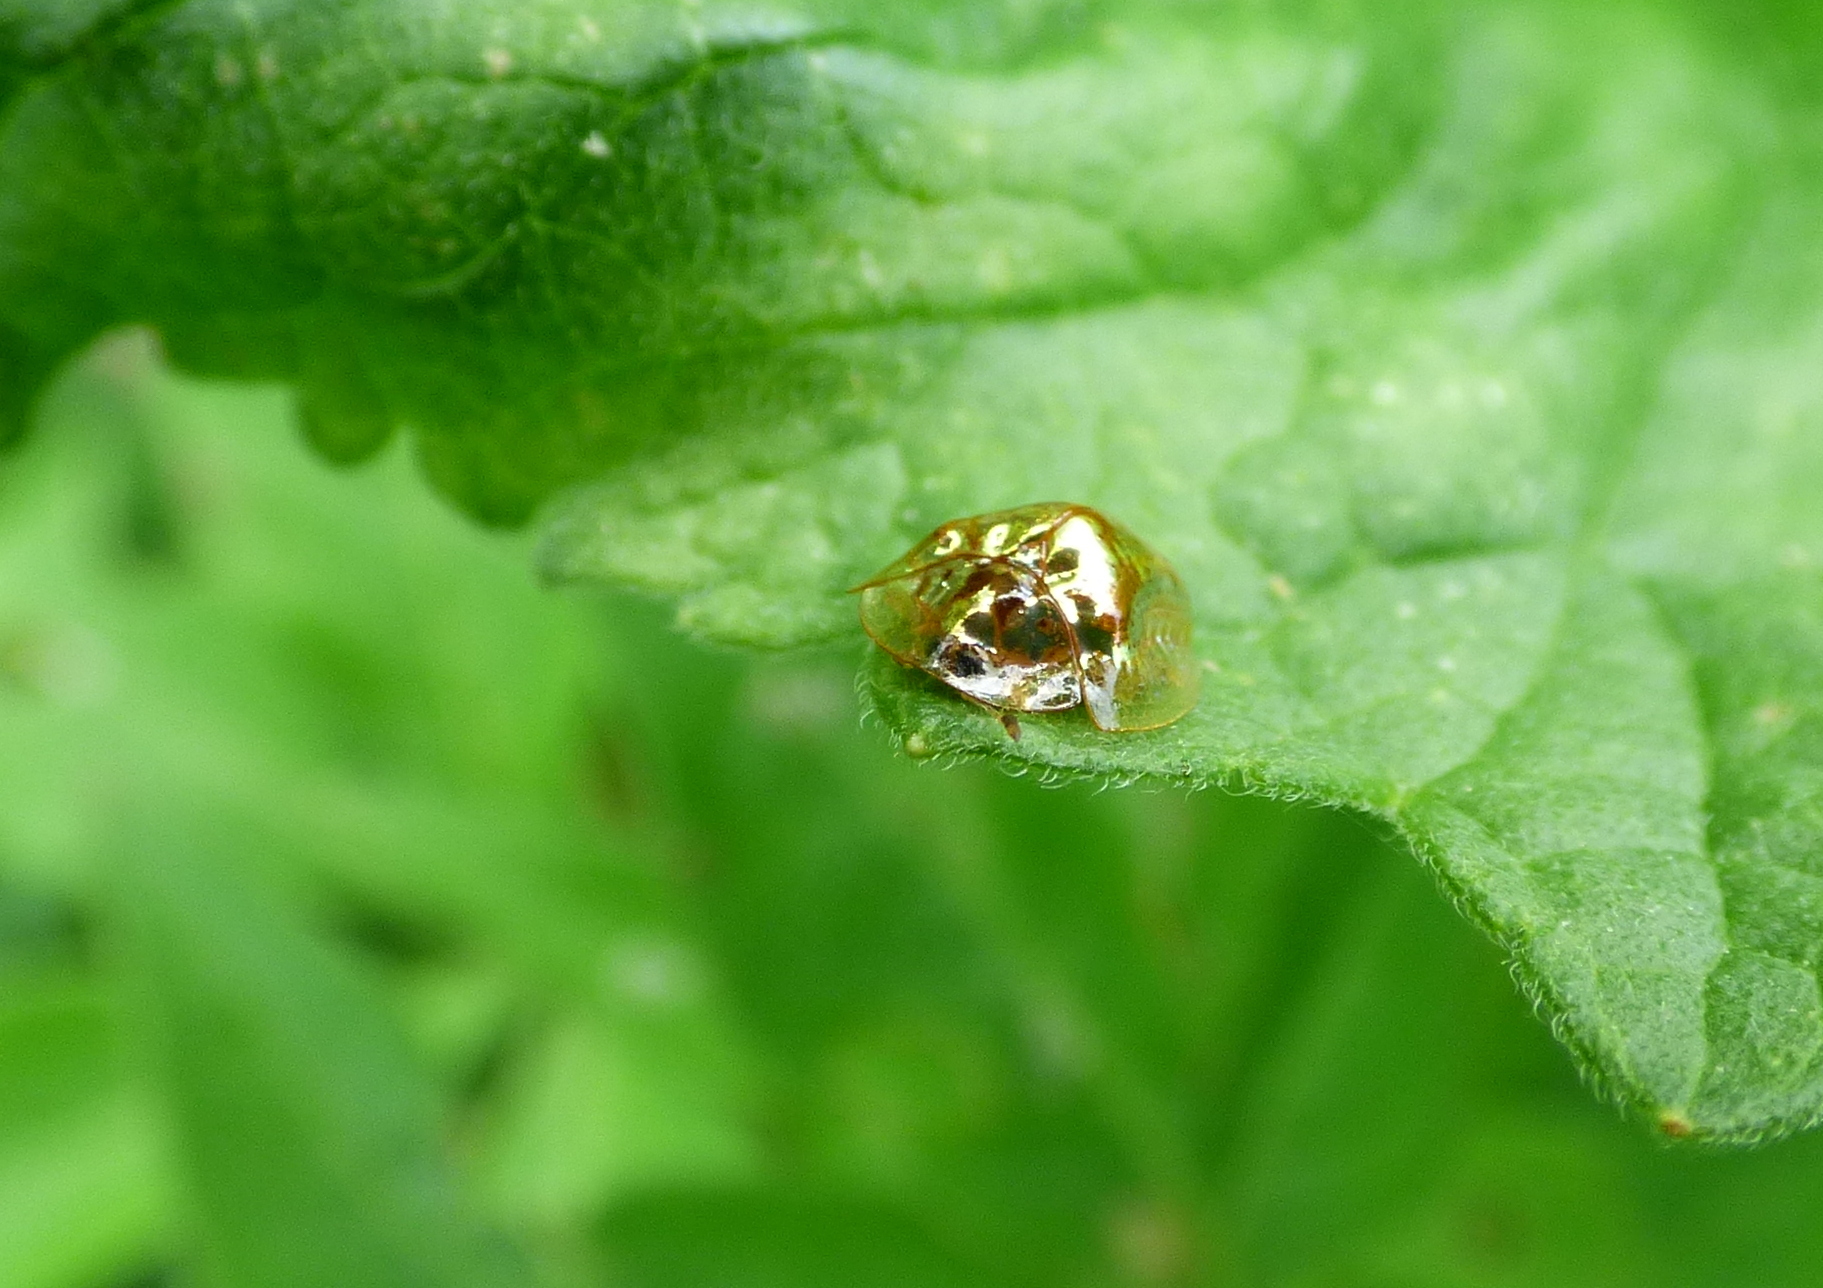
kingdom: Animalia
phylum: Arthropoda
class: Insecta
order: Coleoptera
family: Chrysomelidae
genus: Charidotella
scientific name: Charidotella sexpunctata
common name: Golden tortoise beetle
